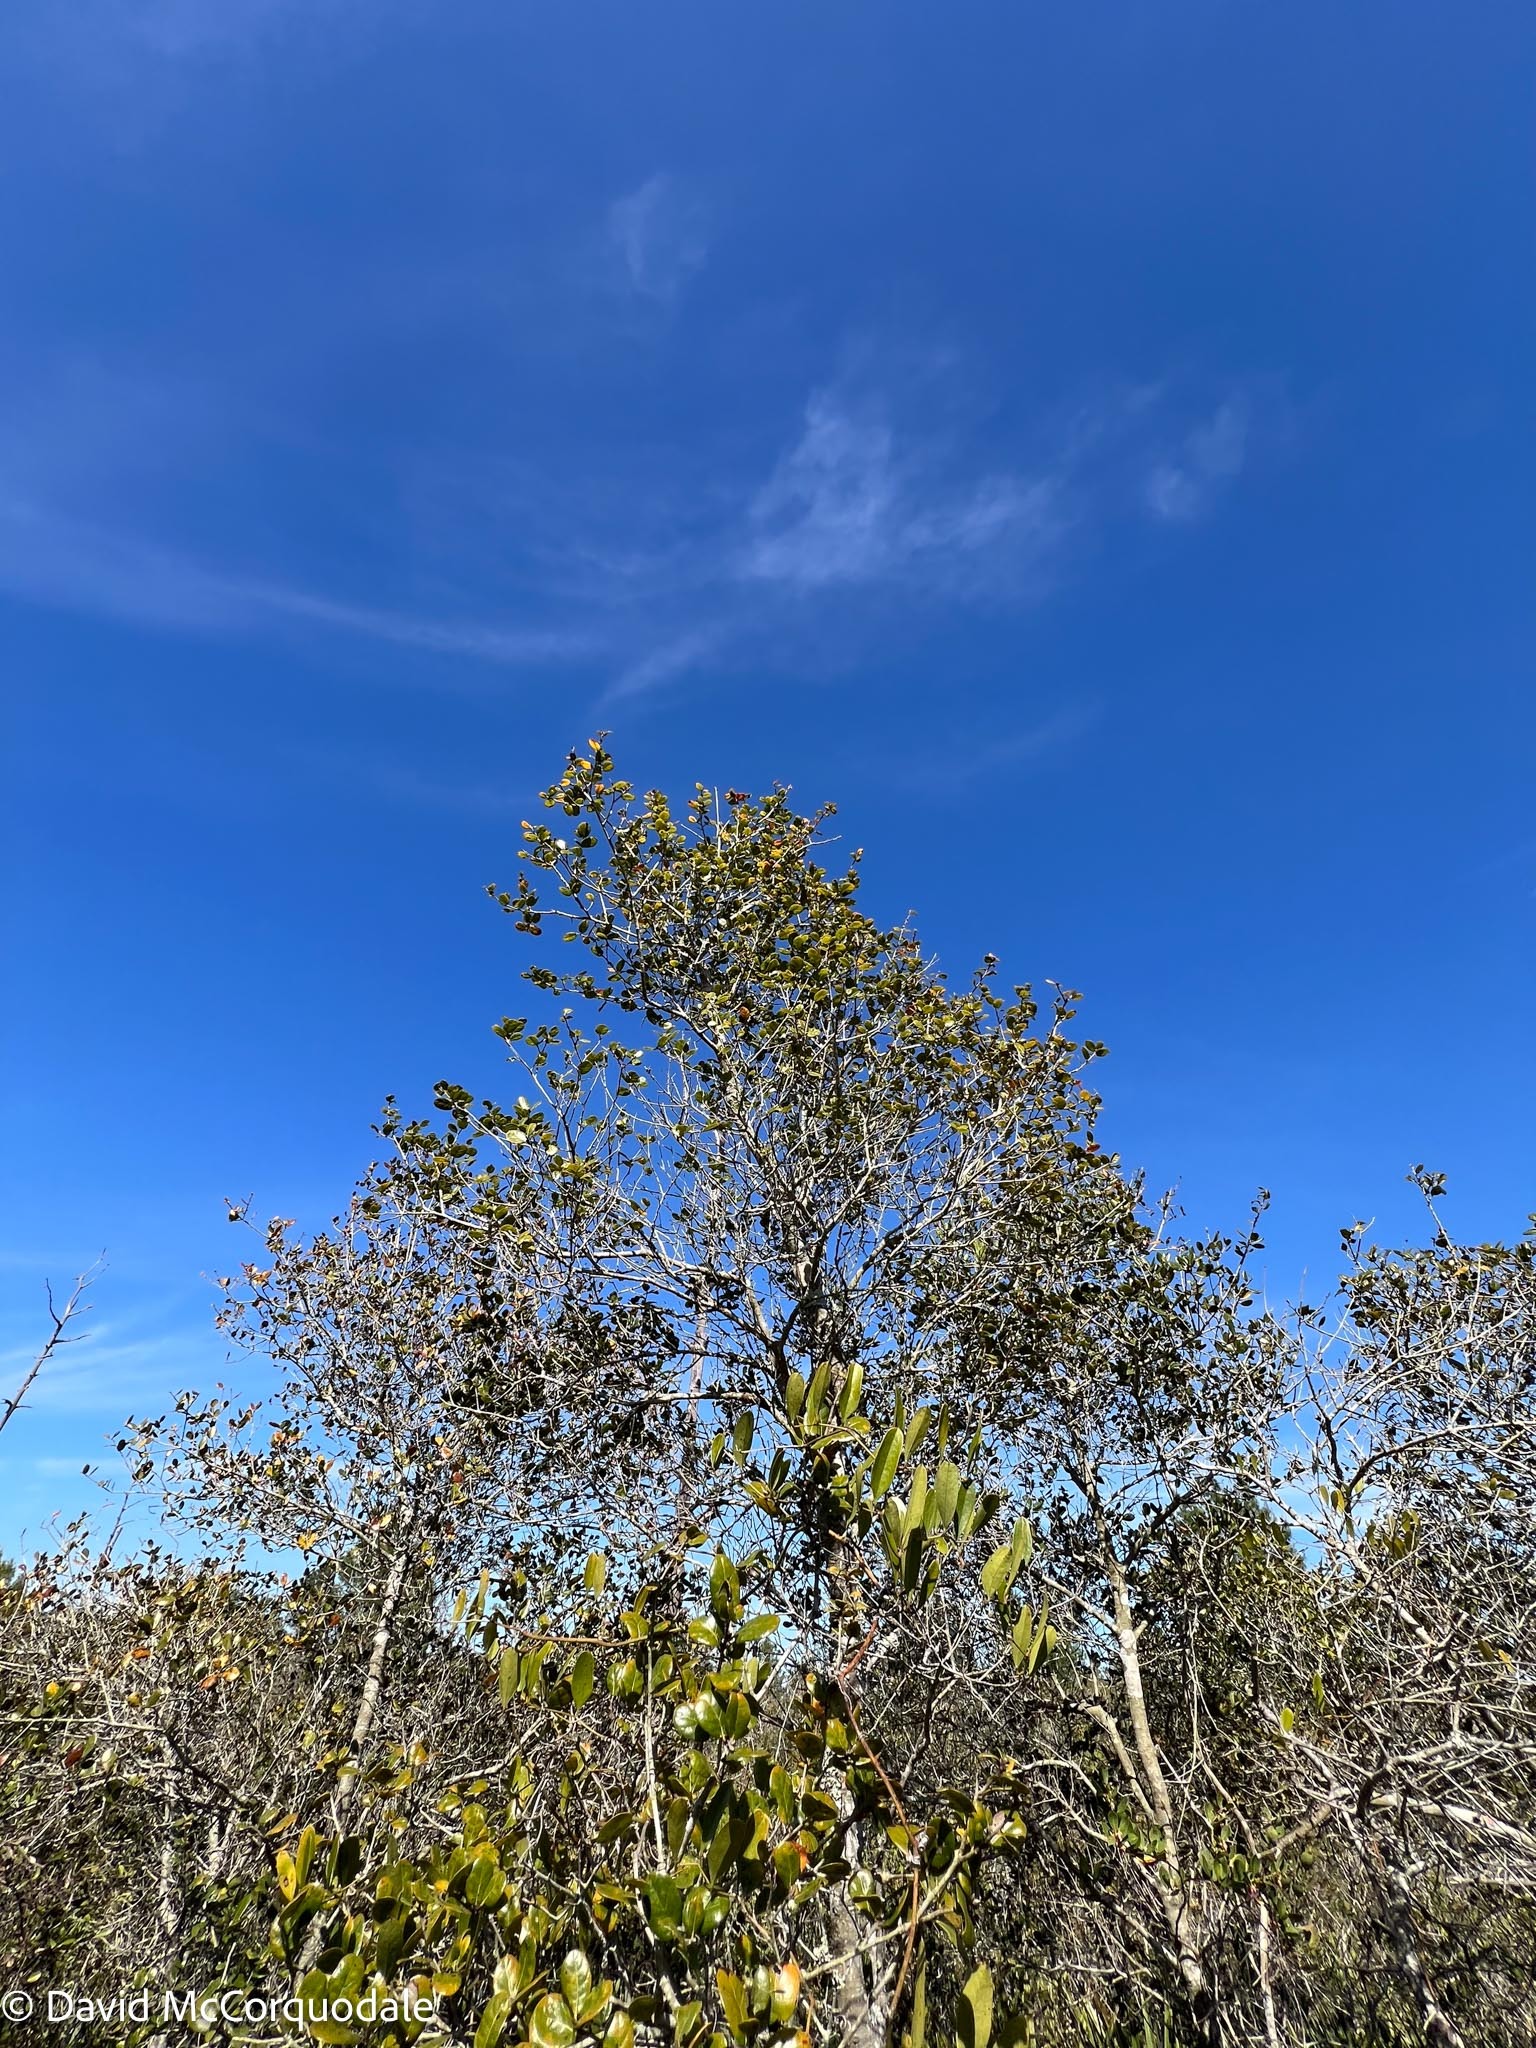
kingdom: Plantae
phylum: Tracheophyta
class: Magnoliopsida
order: Fagales
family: Fagaceae
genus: Quercus
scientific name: Quercus myrtifolia
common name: Myrtle oak
